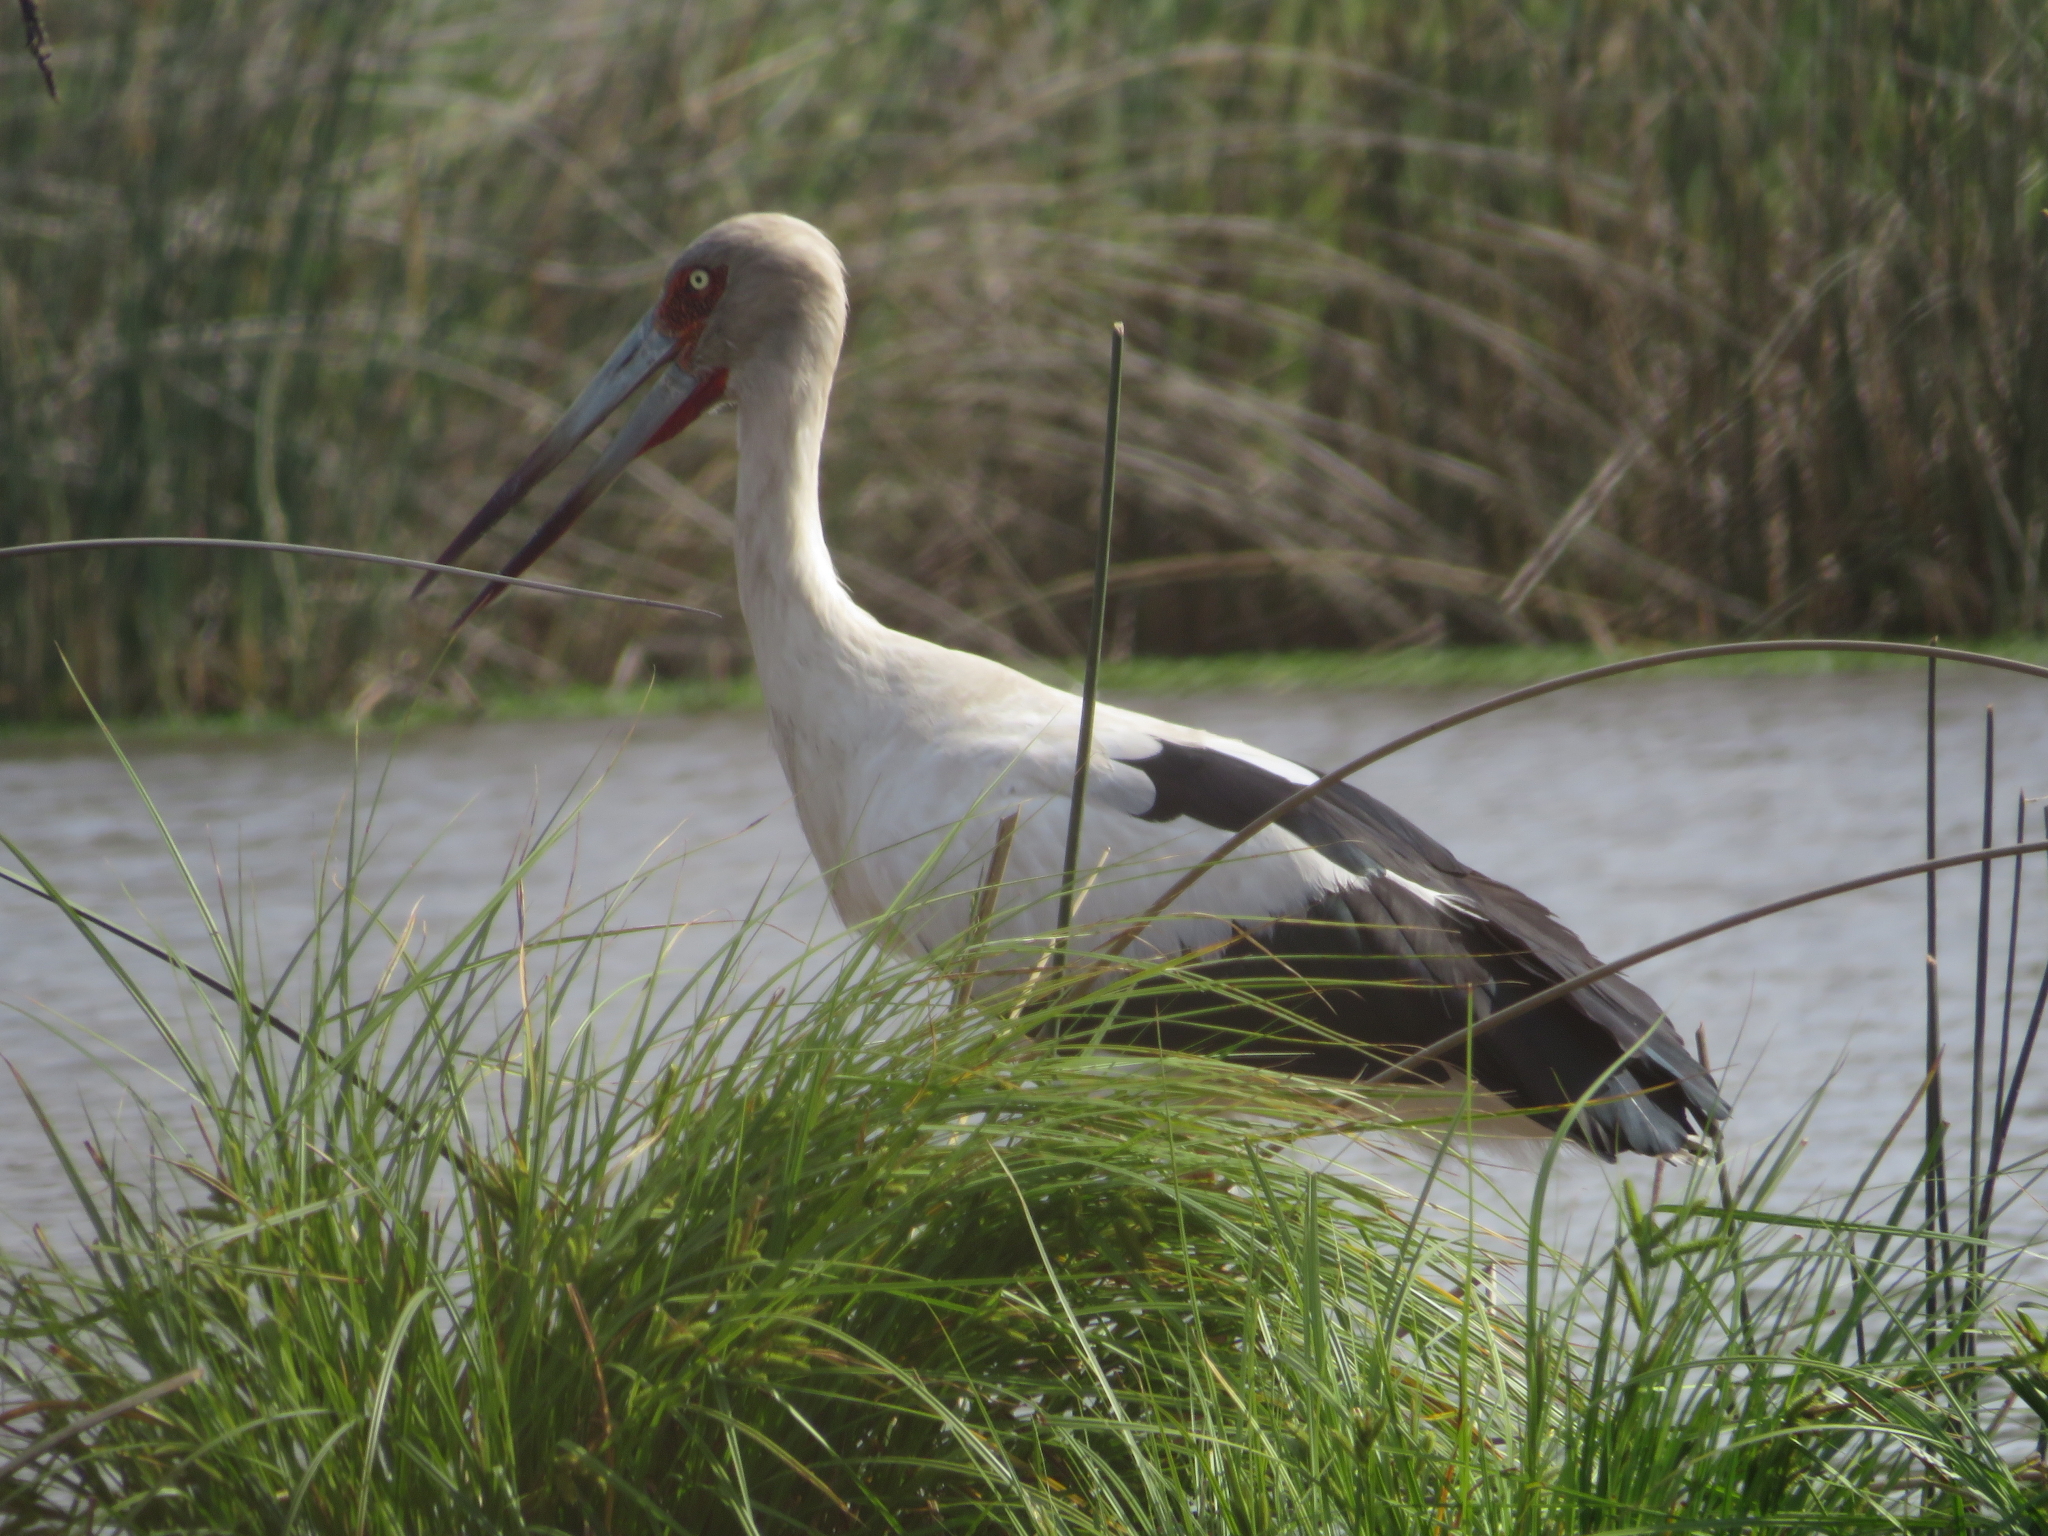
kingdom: Animalia
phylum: Chordata
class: Aves
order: Ciconiiformes
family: Ciconiidae
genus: Ciconia
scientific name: Ciconia maguari
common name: Maguari stork
